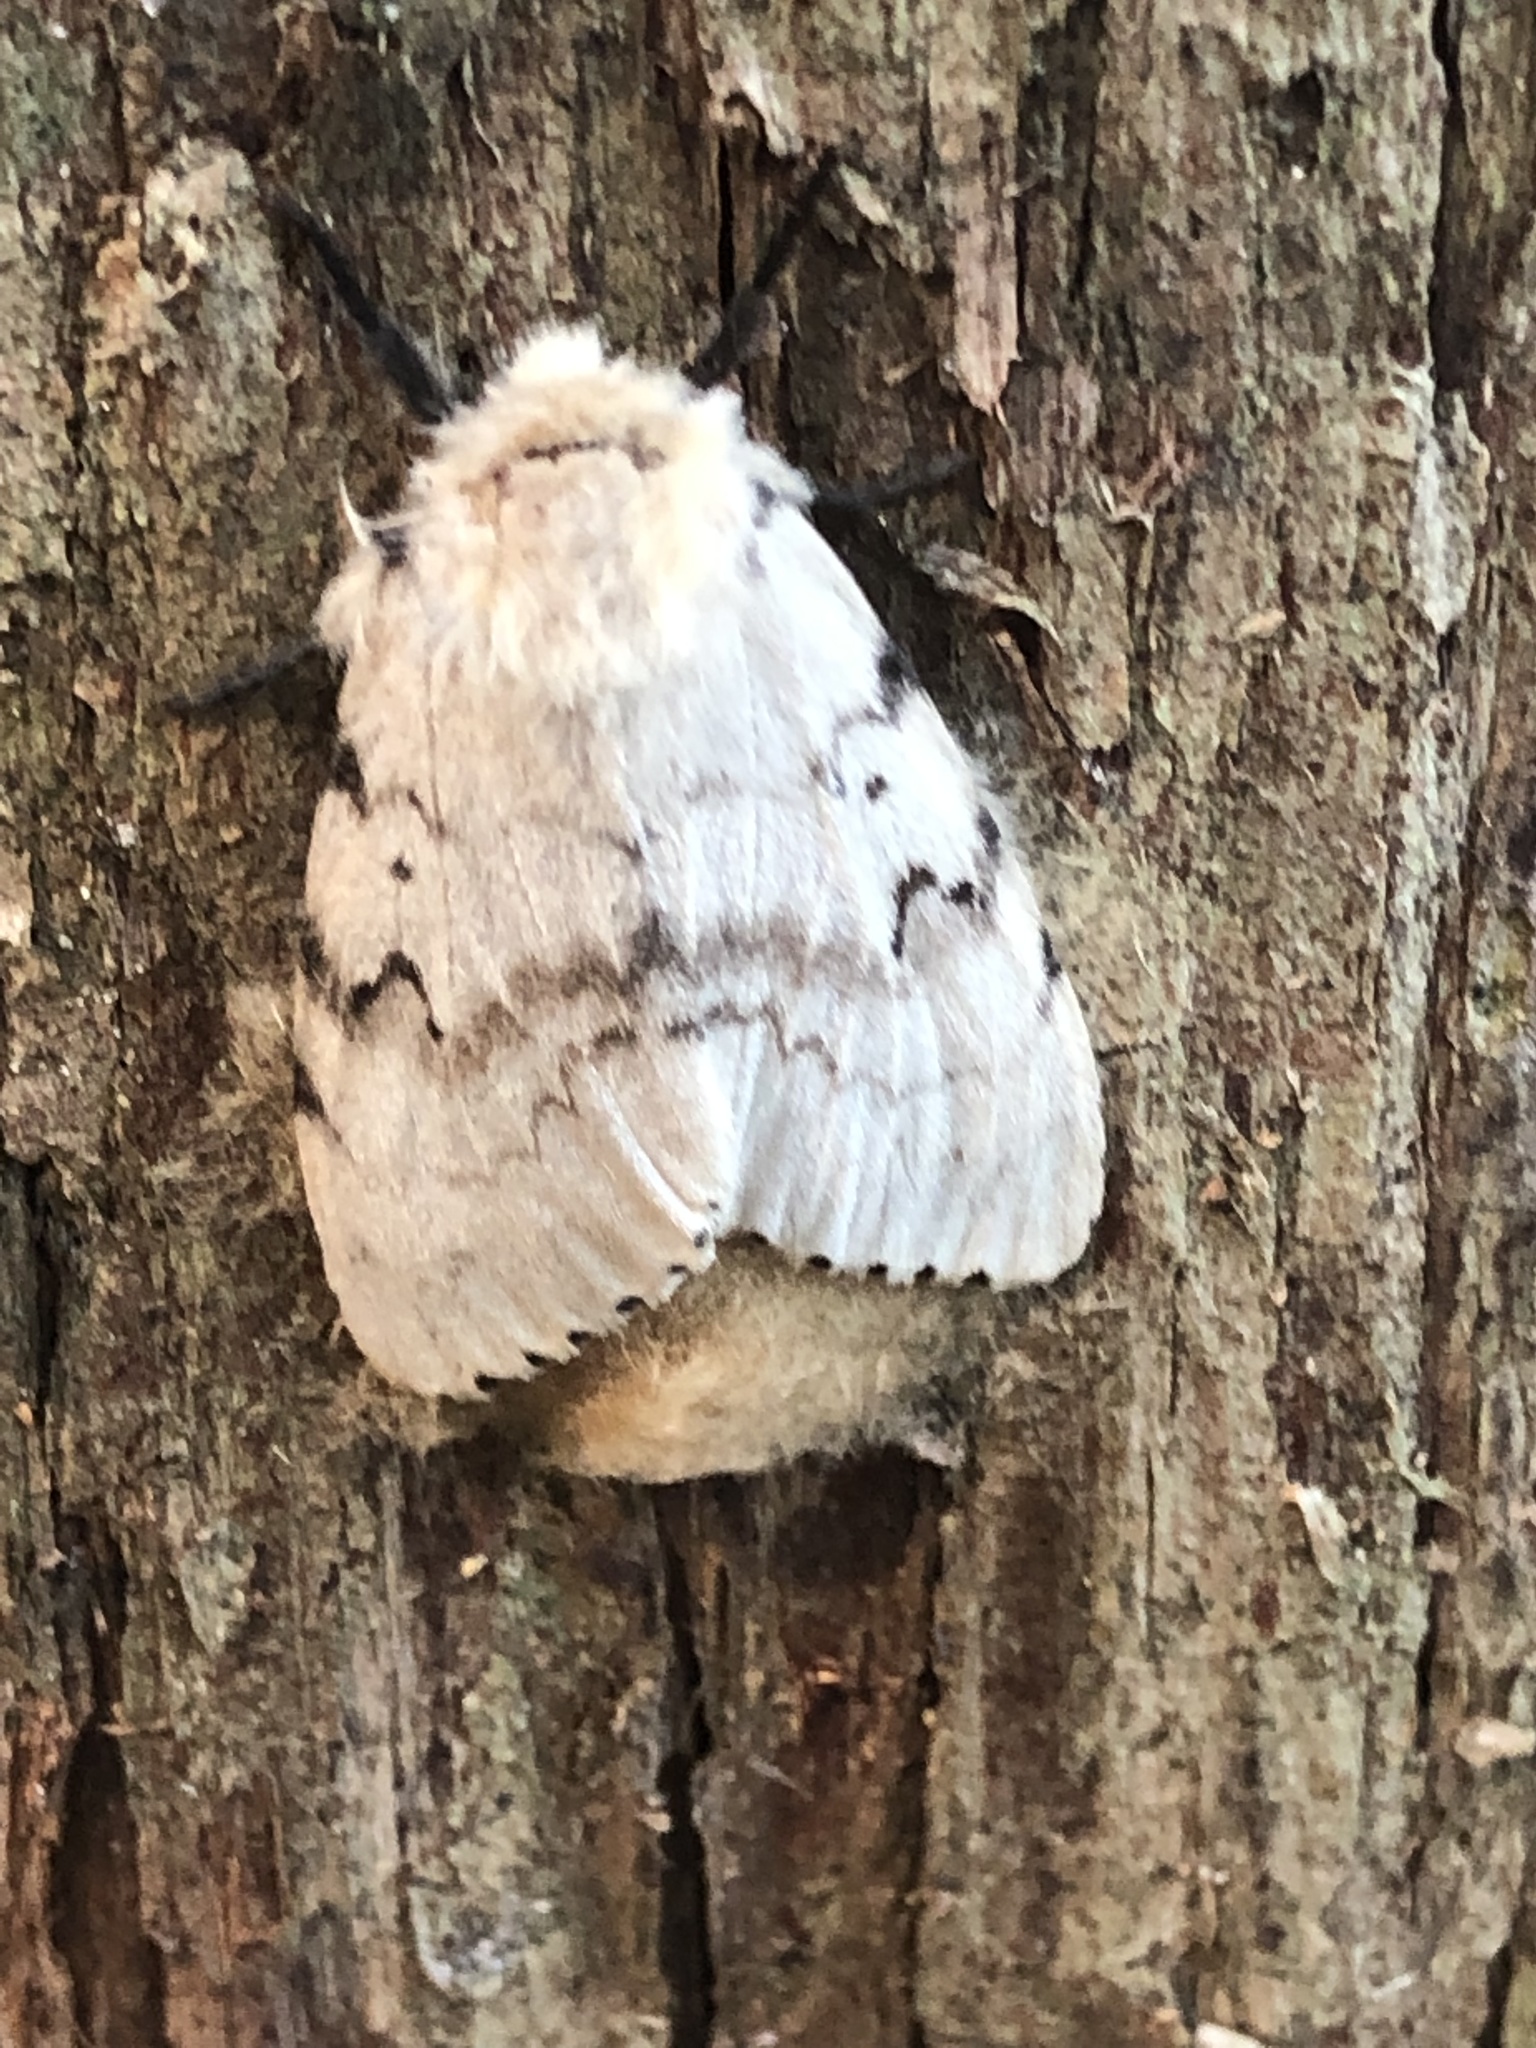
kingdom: Animalia
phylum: Arthropoda
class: Insecta
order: Lepidoptera
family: Erebidae
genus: Lymantria
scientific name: Lymantria dispar
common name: Gypsy moth
